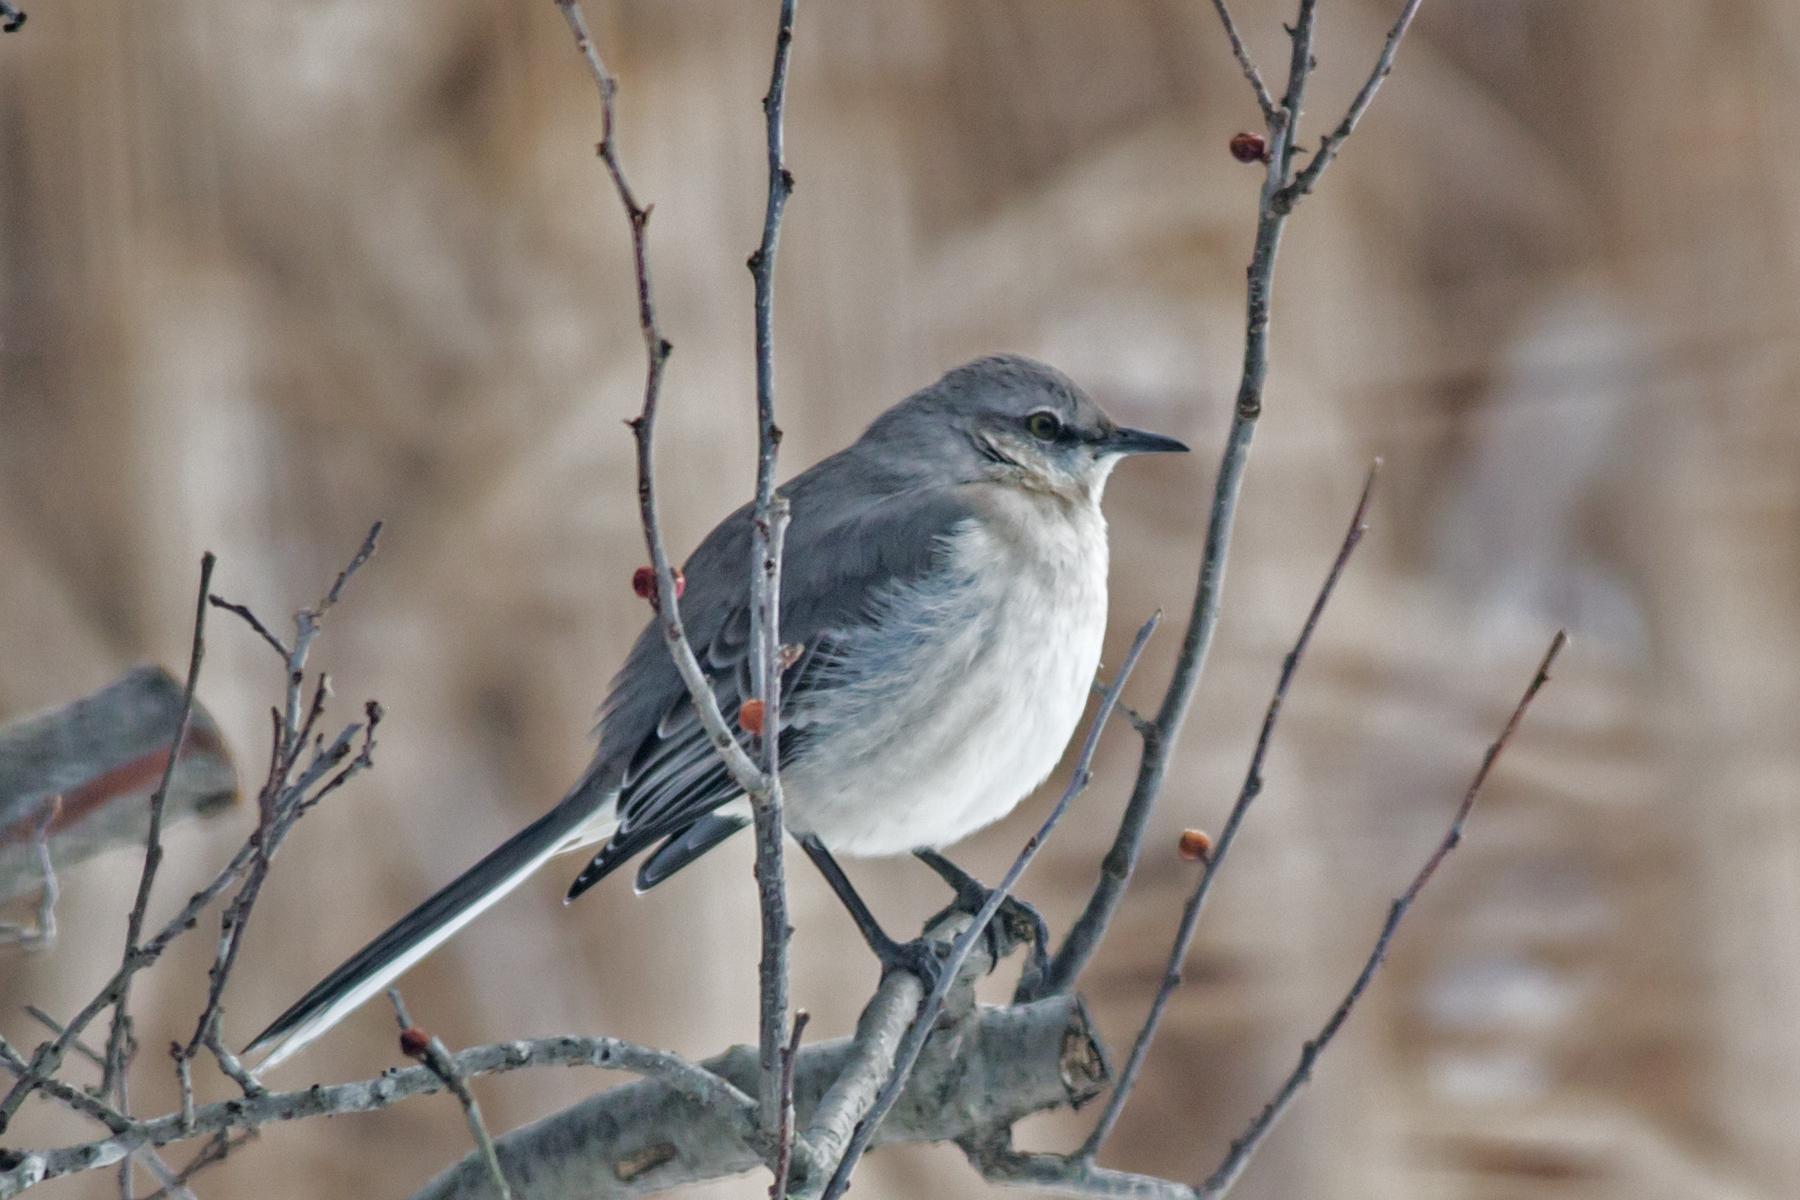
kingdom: Animalia
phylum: Chordata
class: Aves
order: Passeriformes
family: Mimidae
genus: Mimus
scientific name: Mimus polyglottos
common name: Northern mockingbird
